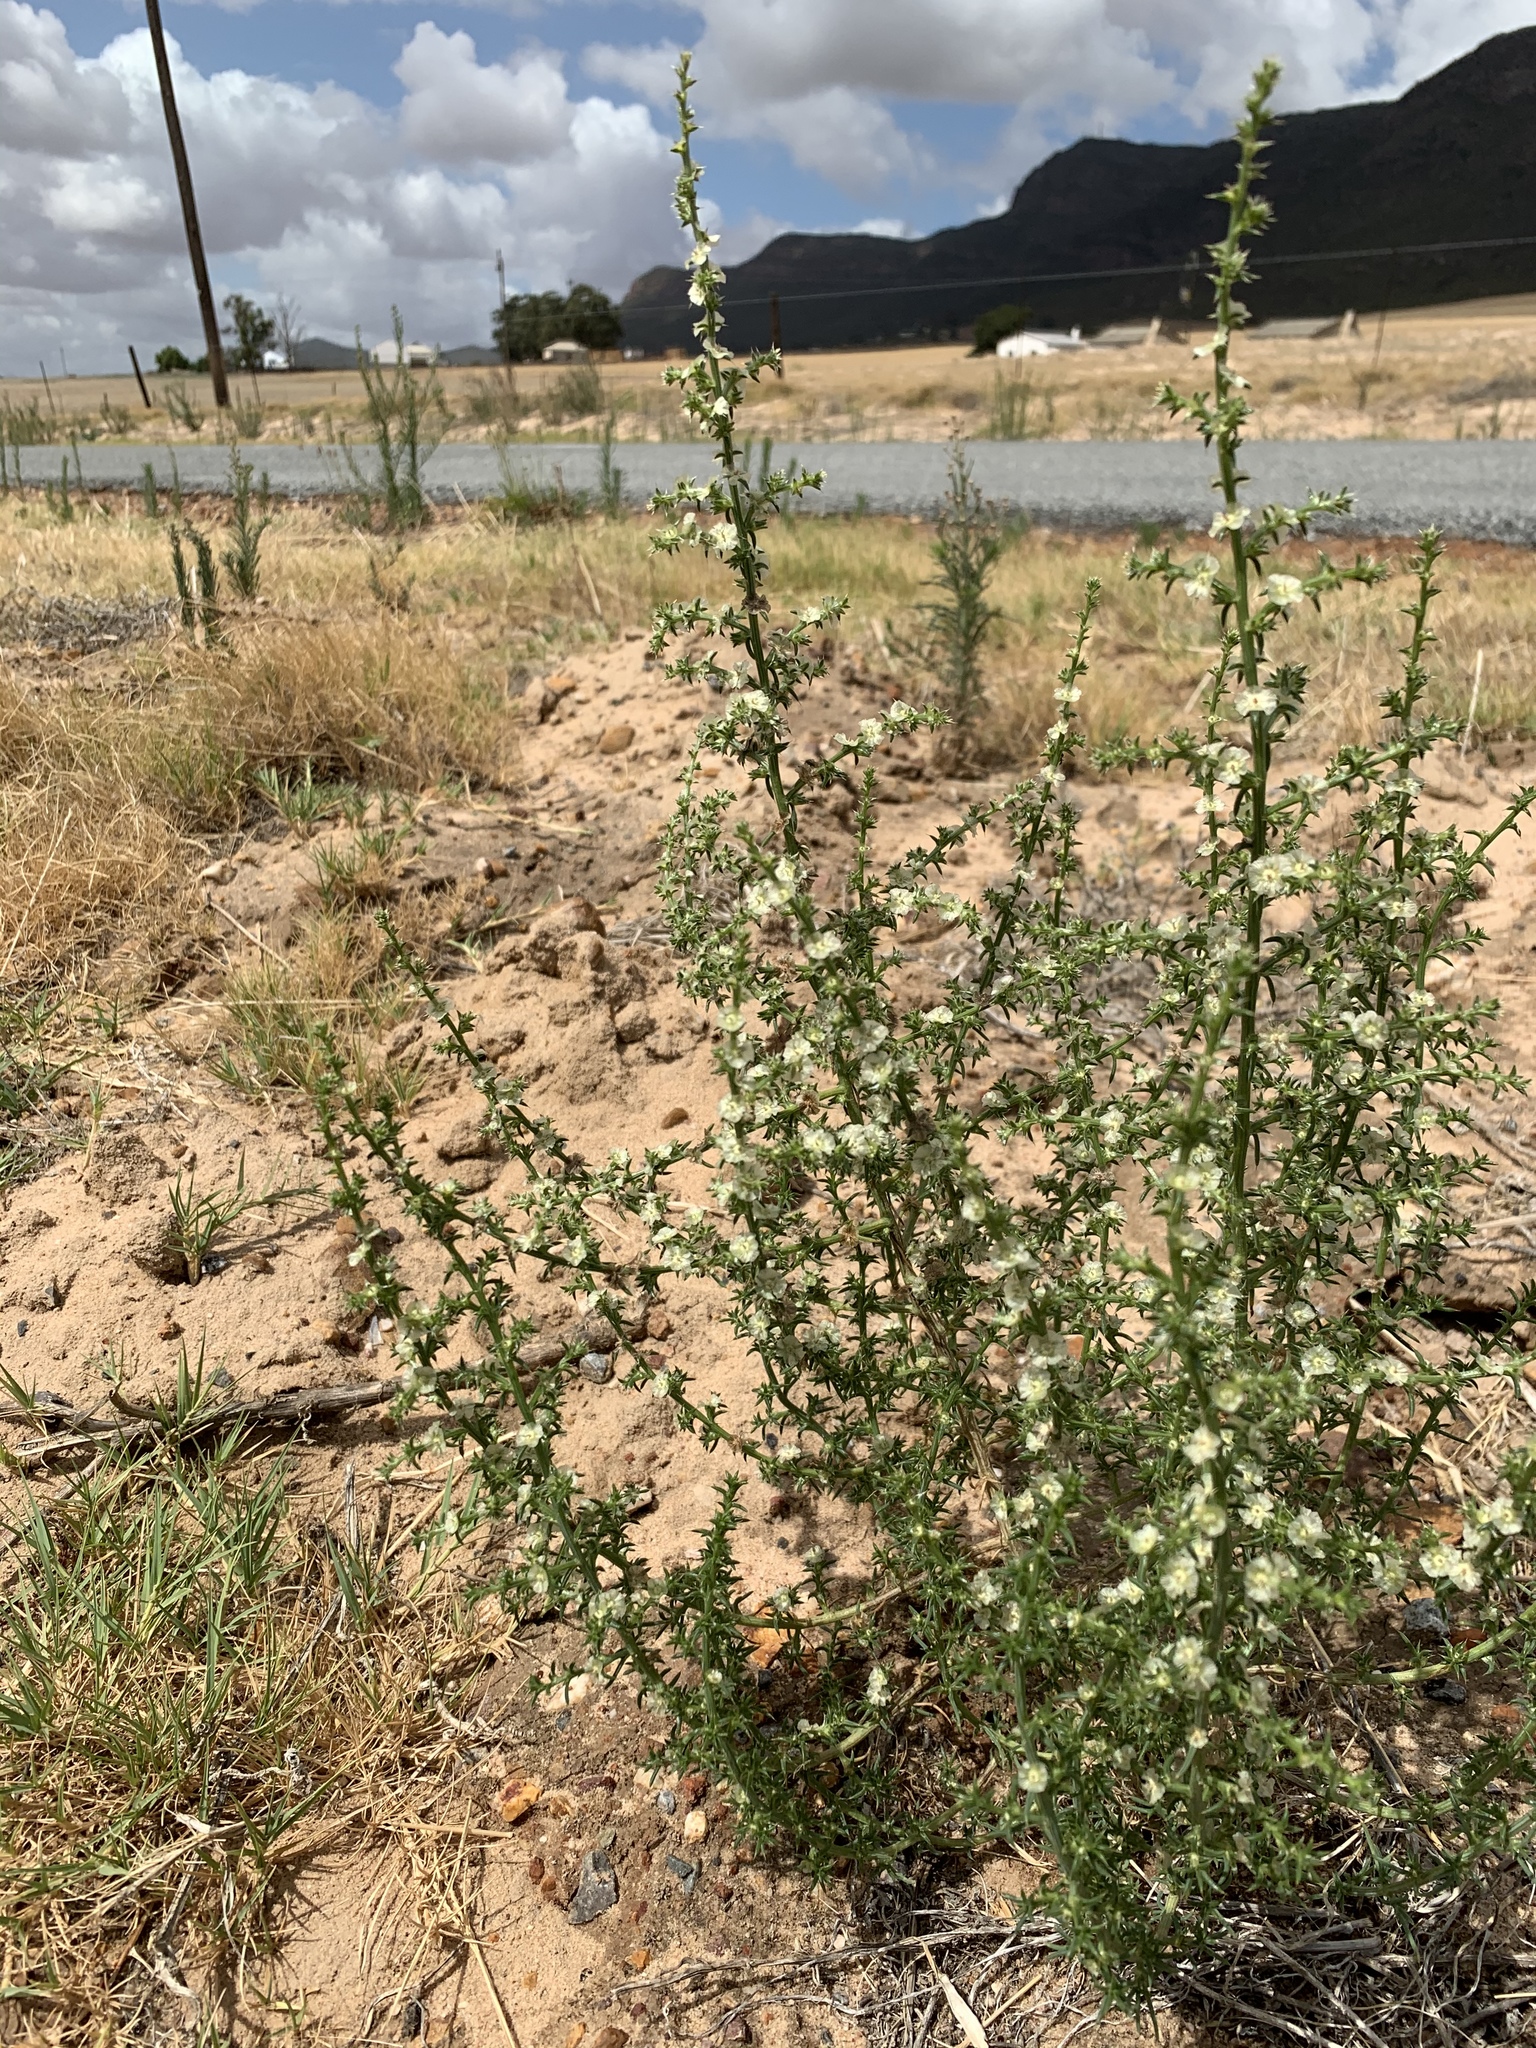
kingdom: Plantae
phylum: Tracheophyta
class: Magnoliopsida
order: Caryophyllales
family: Amaranthaceae
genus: Salsola
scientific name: Salsola kali
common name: Saltwort
